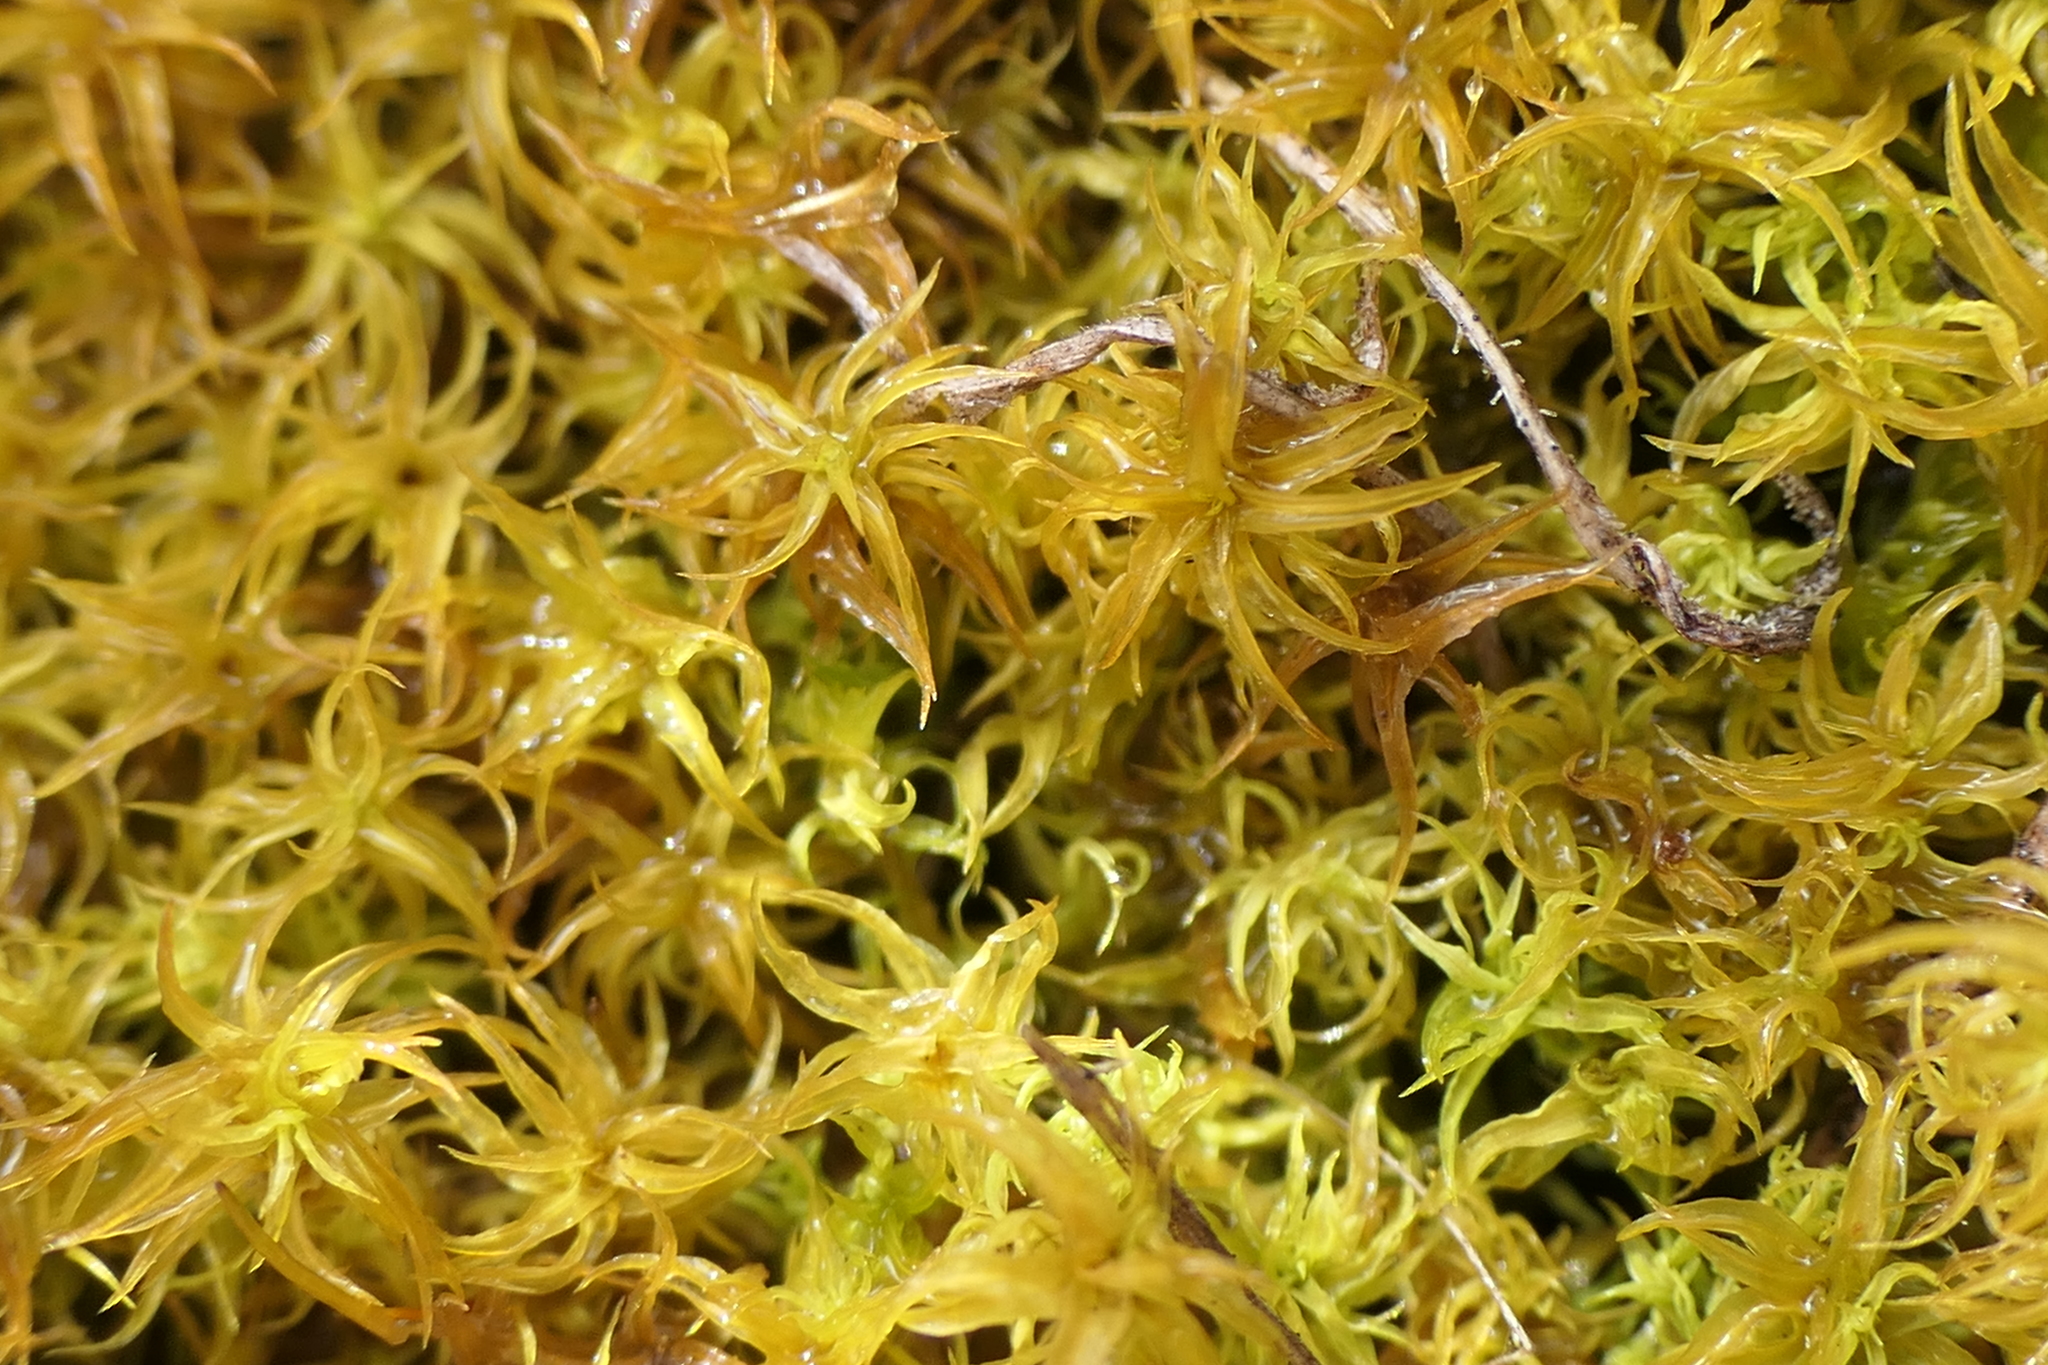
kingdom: Plantae
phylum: Bryophyta
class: Bryopsida
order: Pottiales
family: Pottiaceae
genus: Pleurochaete
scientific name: Pleurochaete squarrosa
